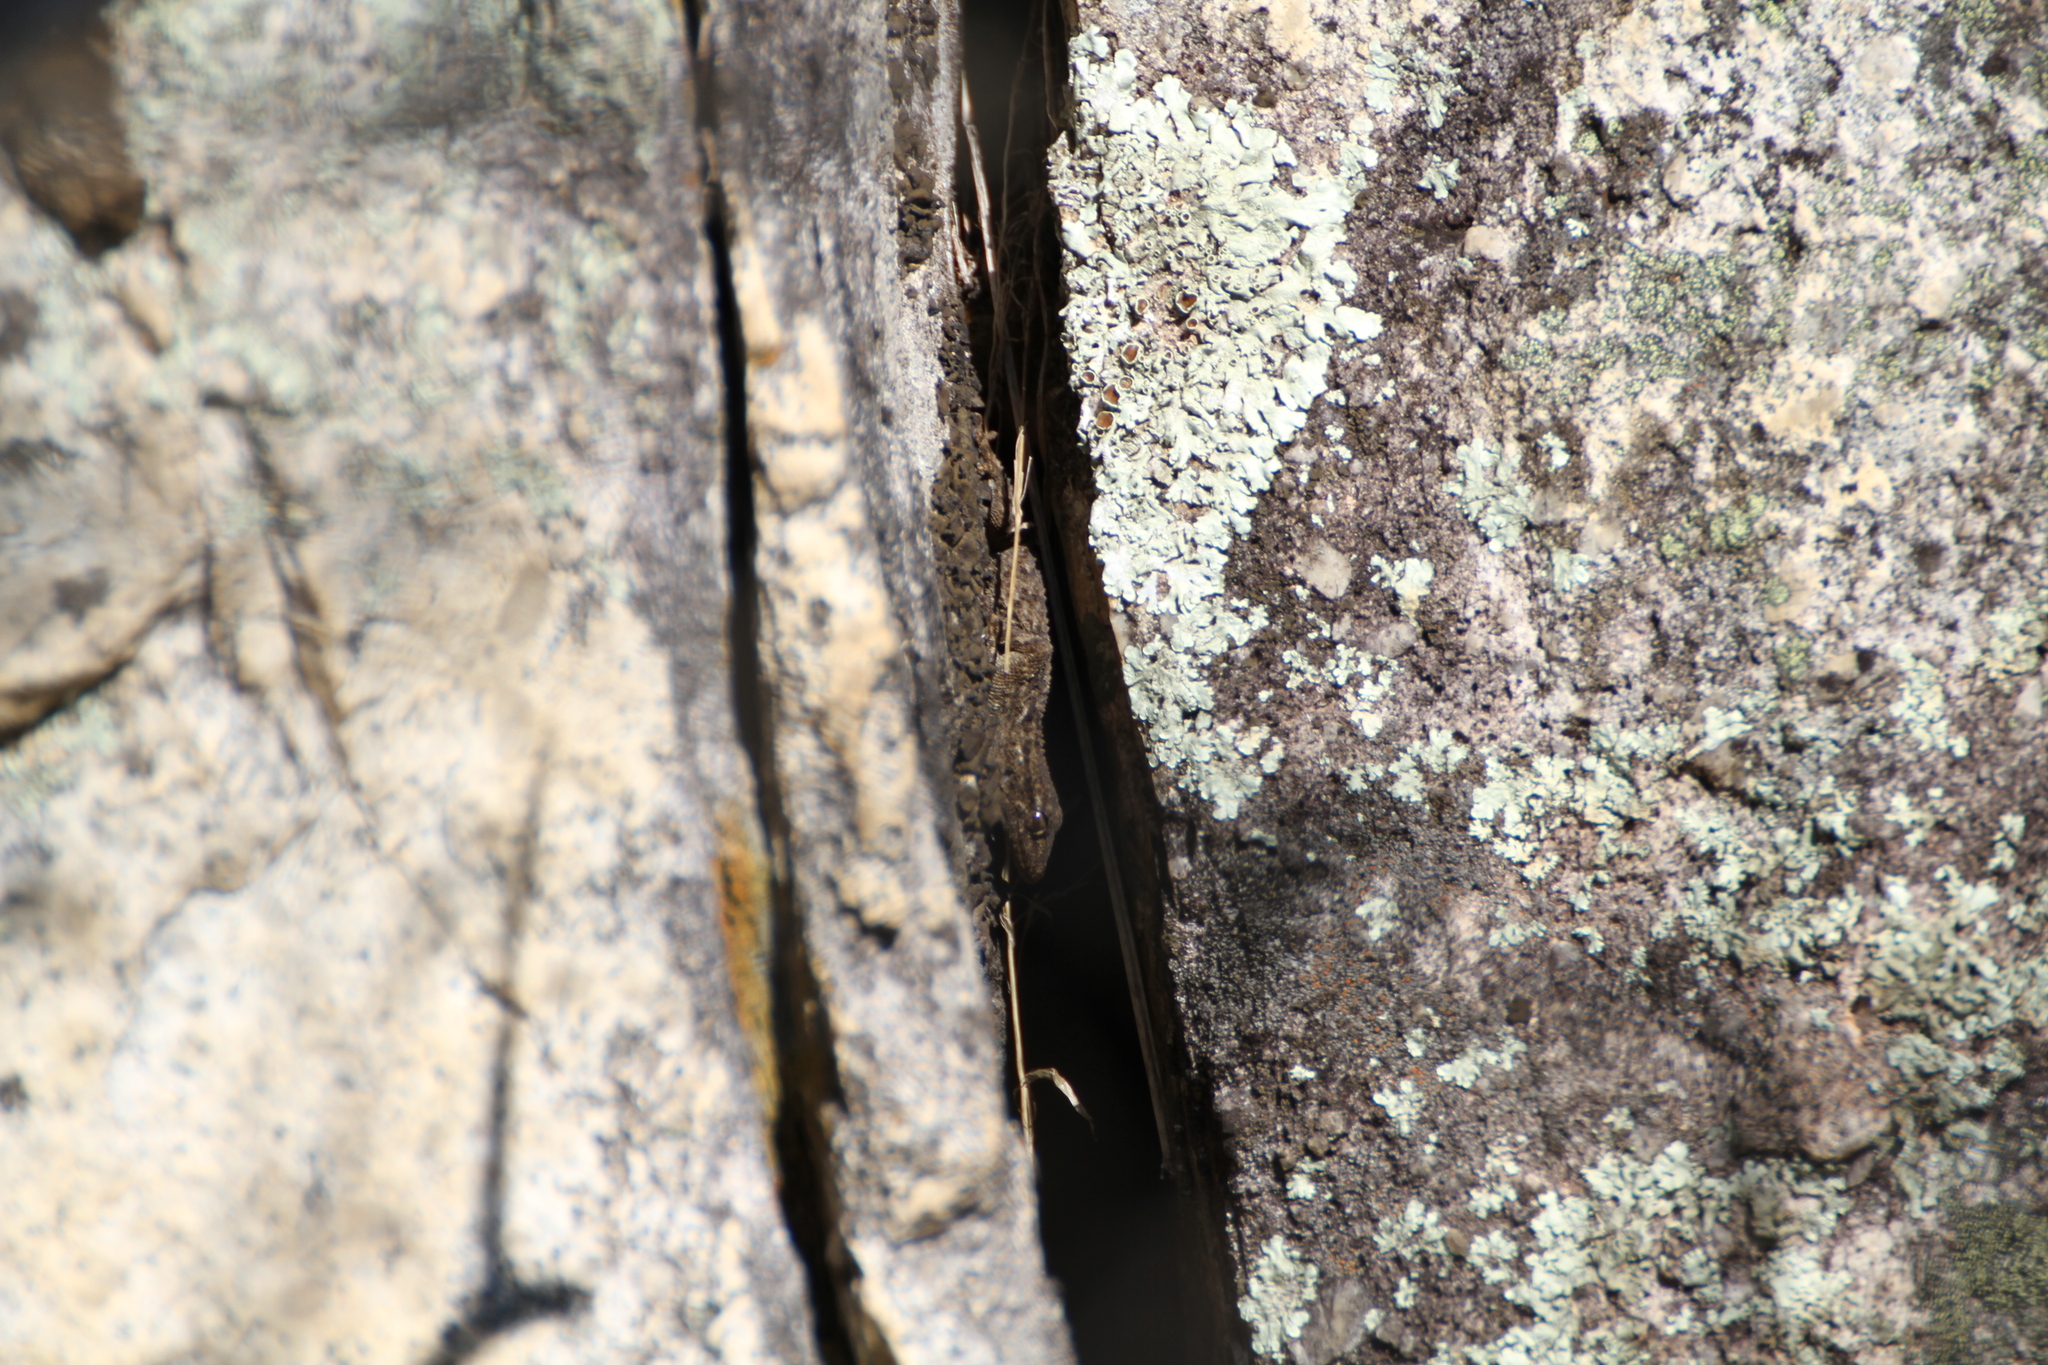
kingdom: Animalia
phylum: Chordata
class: Squamata
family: Phyllodactylidae
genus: Tarentola
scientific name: Tarentola mauritanica
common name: Moorish gecko
